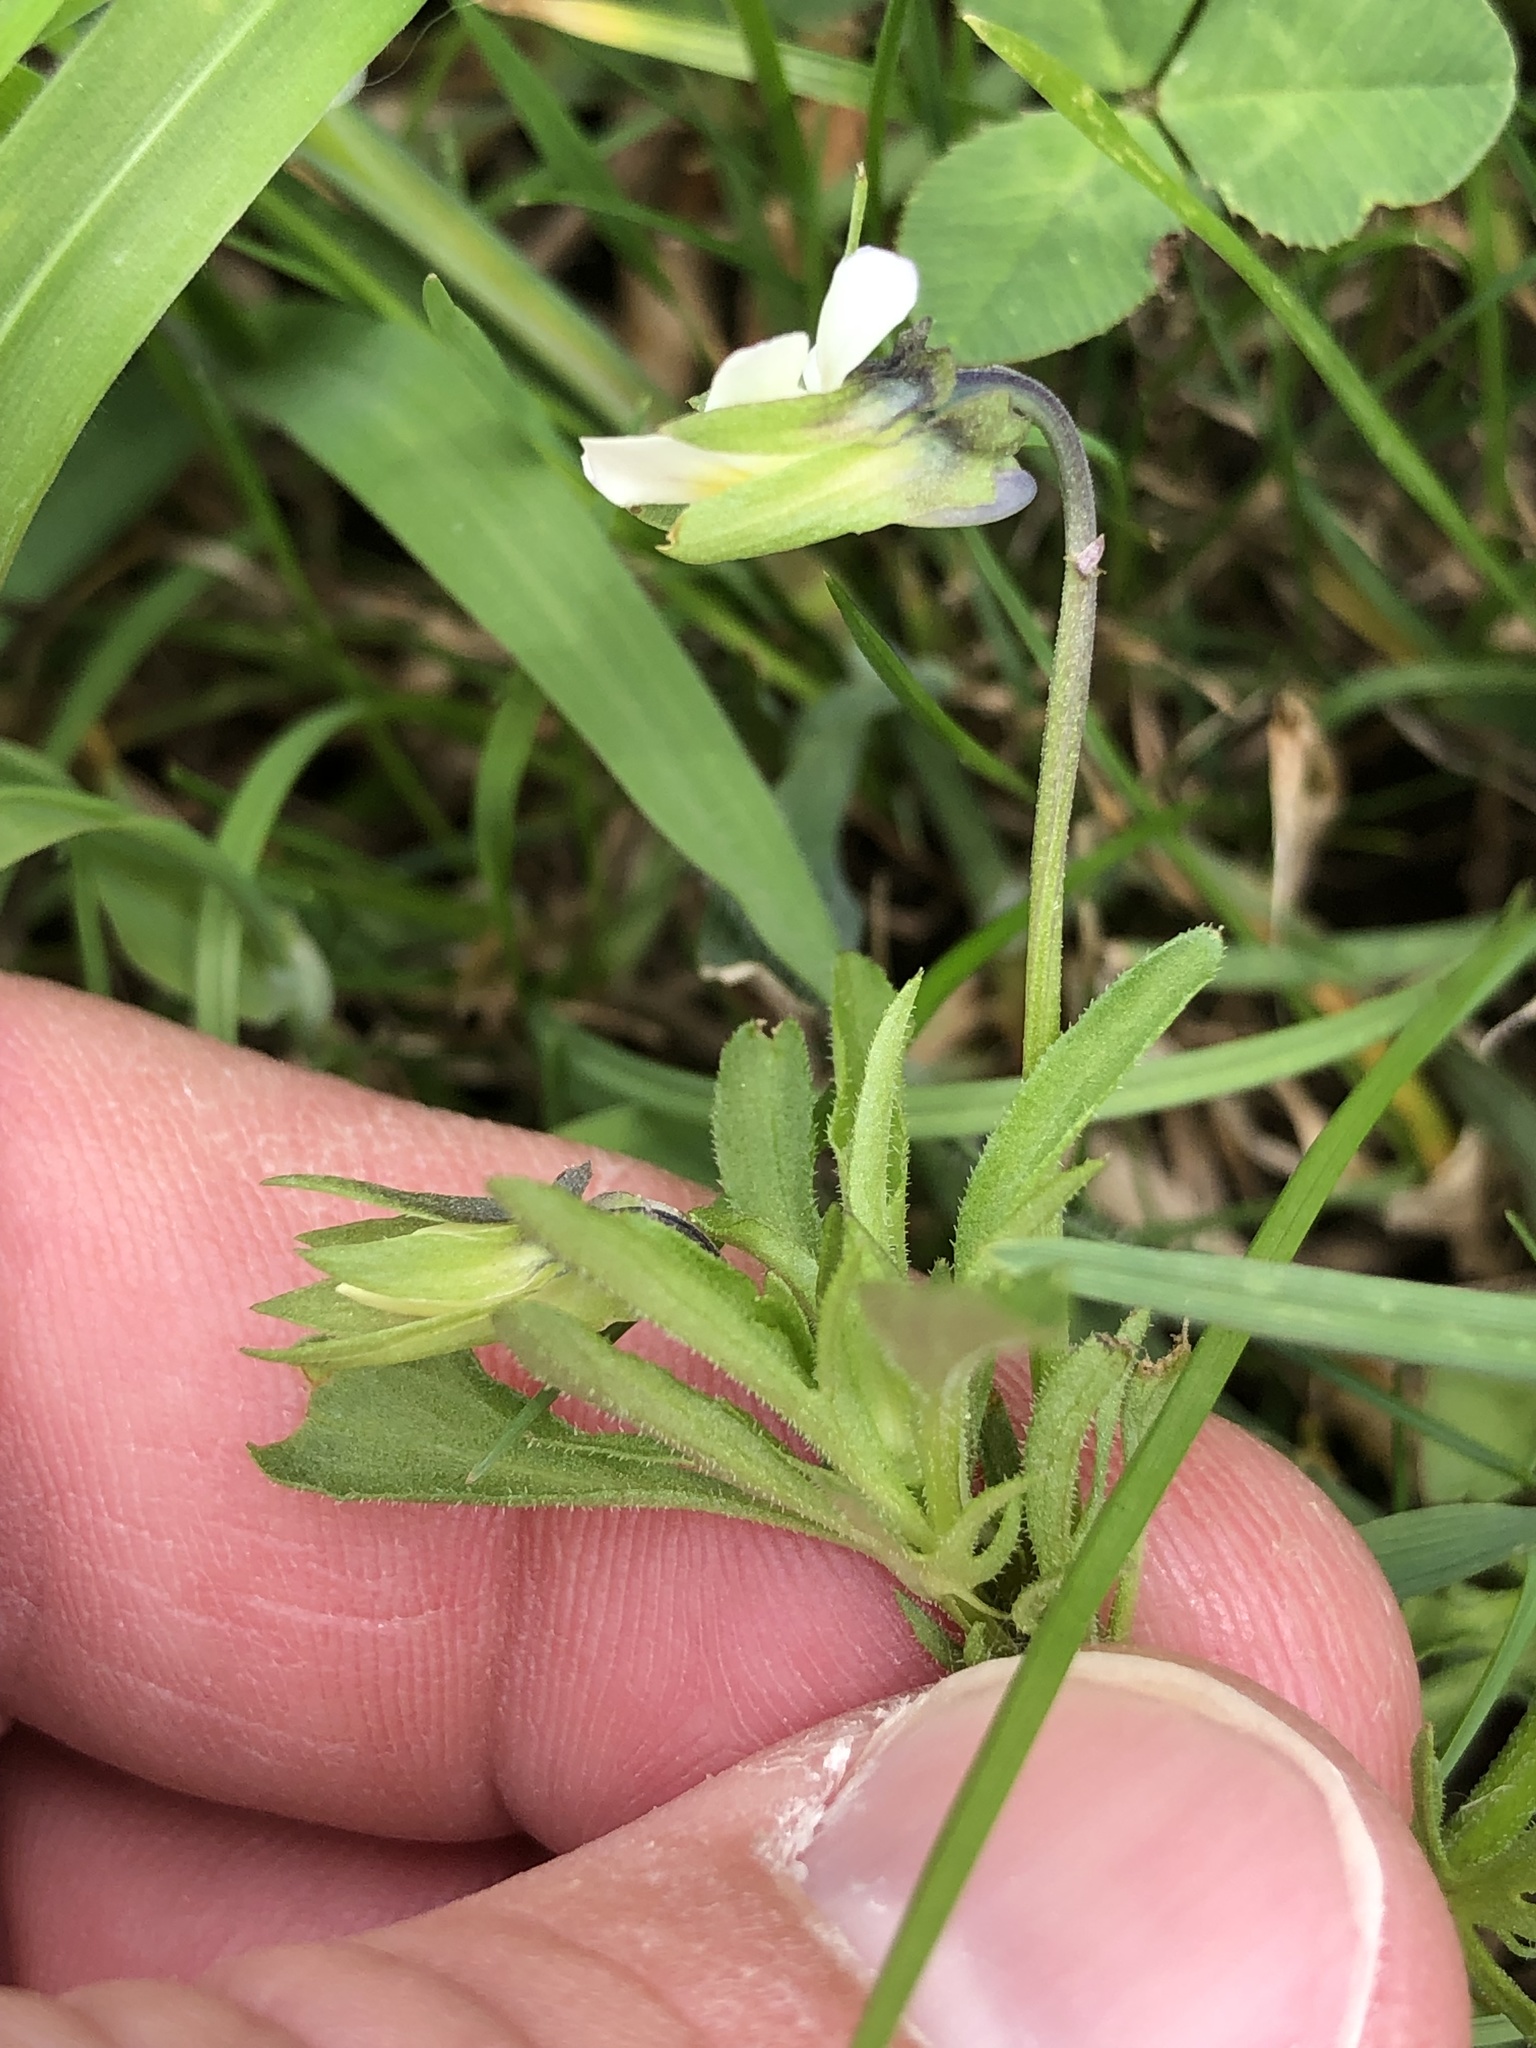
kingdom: Plantae
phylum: Tracheophyta
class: Magnoliopsida
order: Malpighiales
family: Violaceae
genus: Viola
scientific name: Viola arvensis
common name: Field pansy
